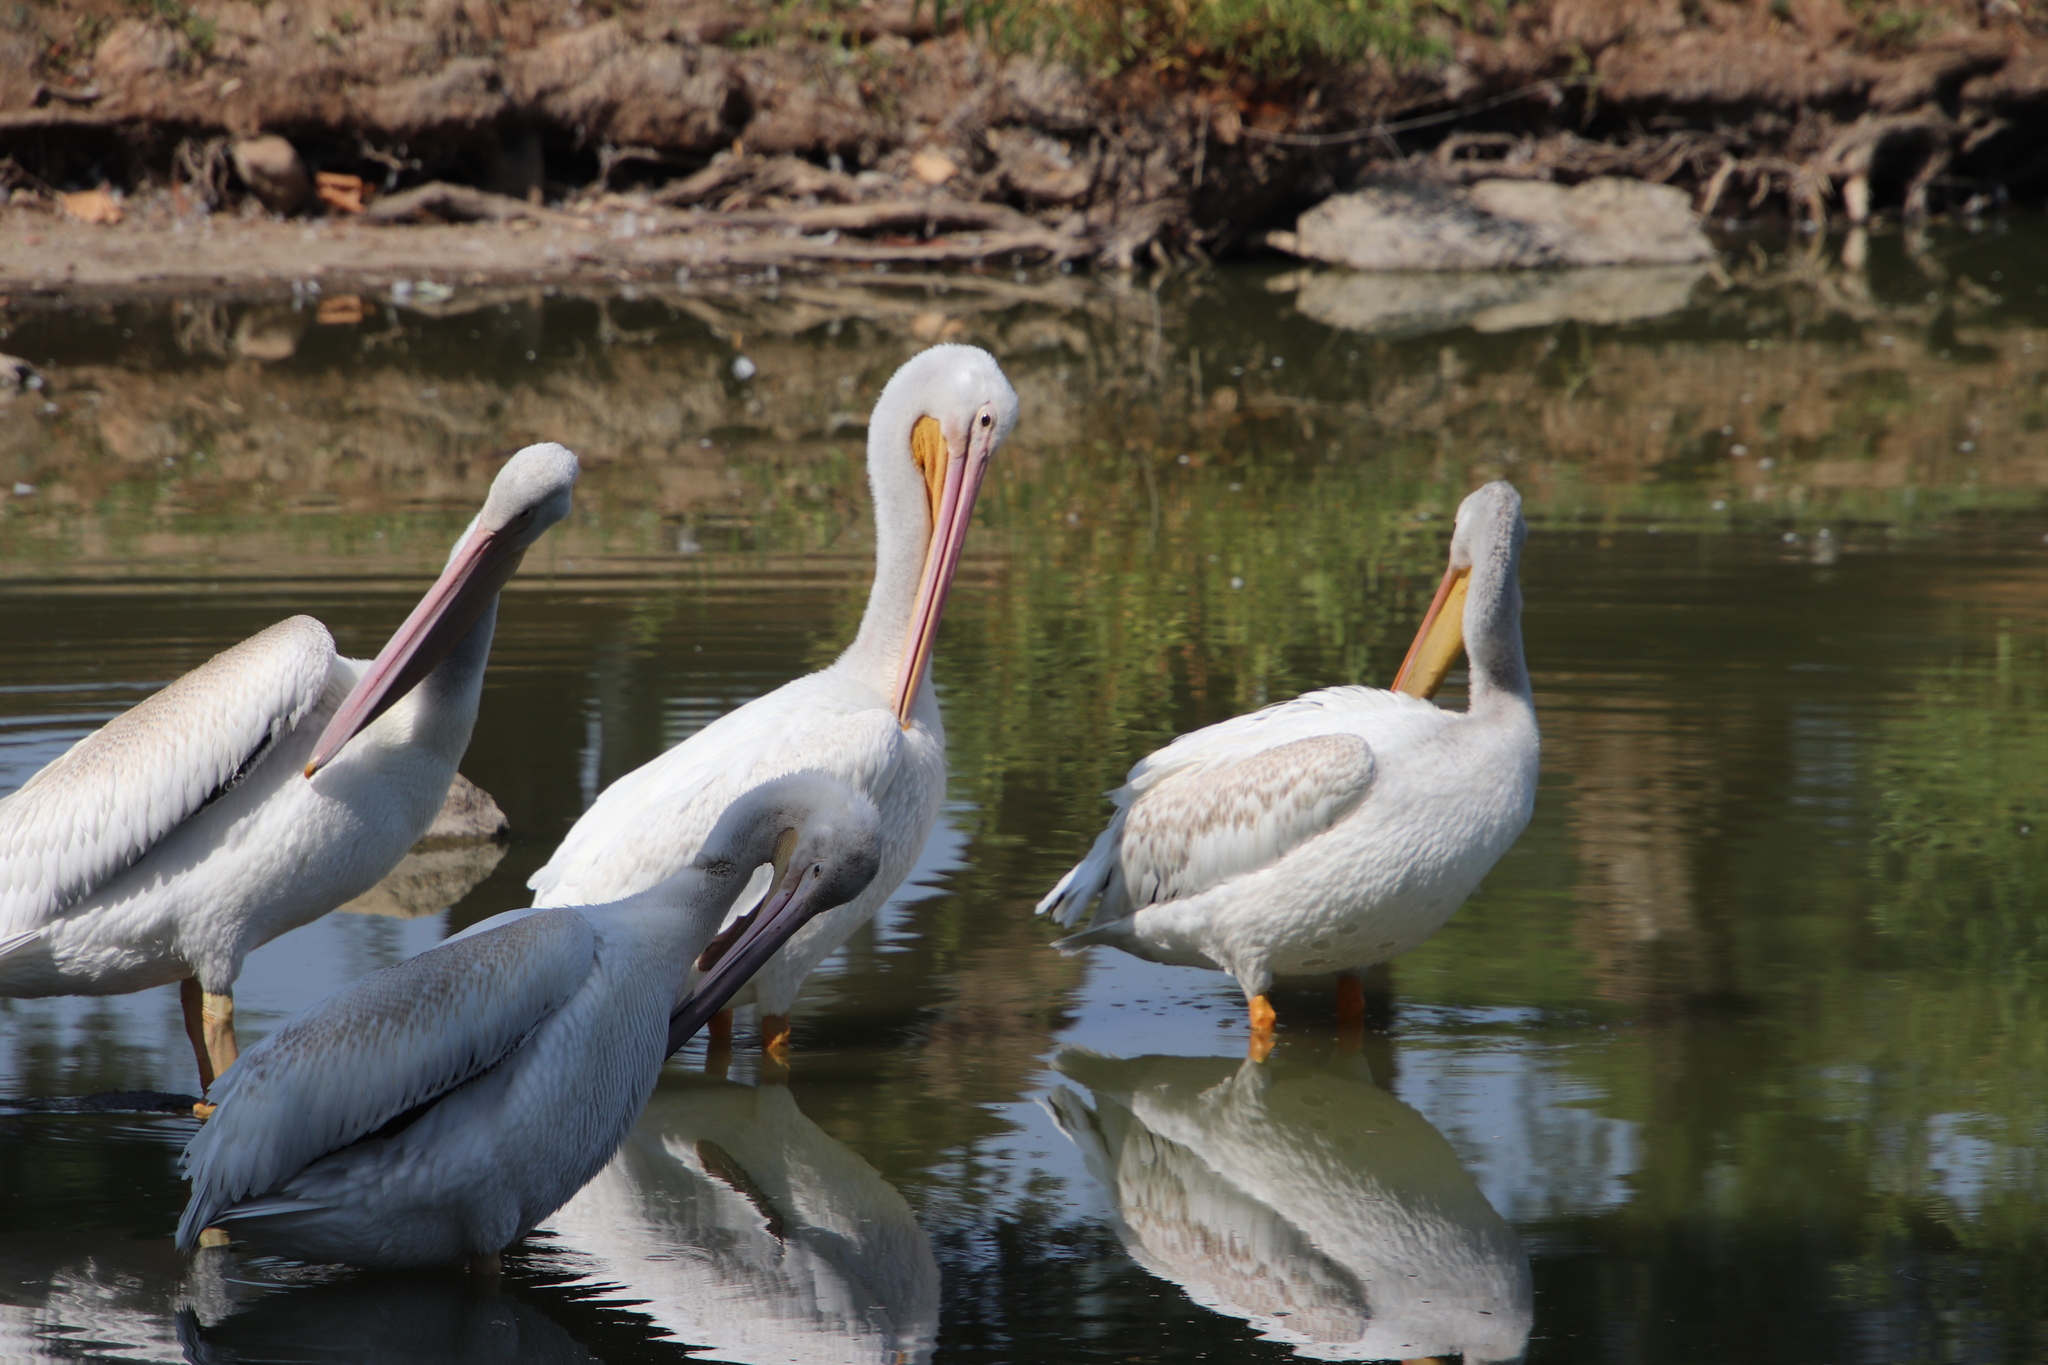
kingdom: Animalia
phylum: Chordata
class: Aves
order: Pelecaniformes
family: Pelecanidae
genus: Pelecanus
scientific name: Pelecanus erythrorhynchos
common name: American white pelican
